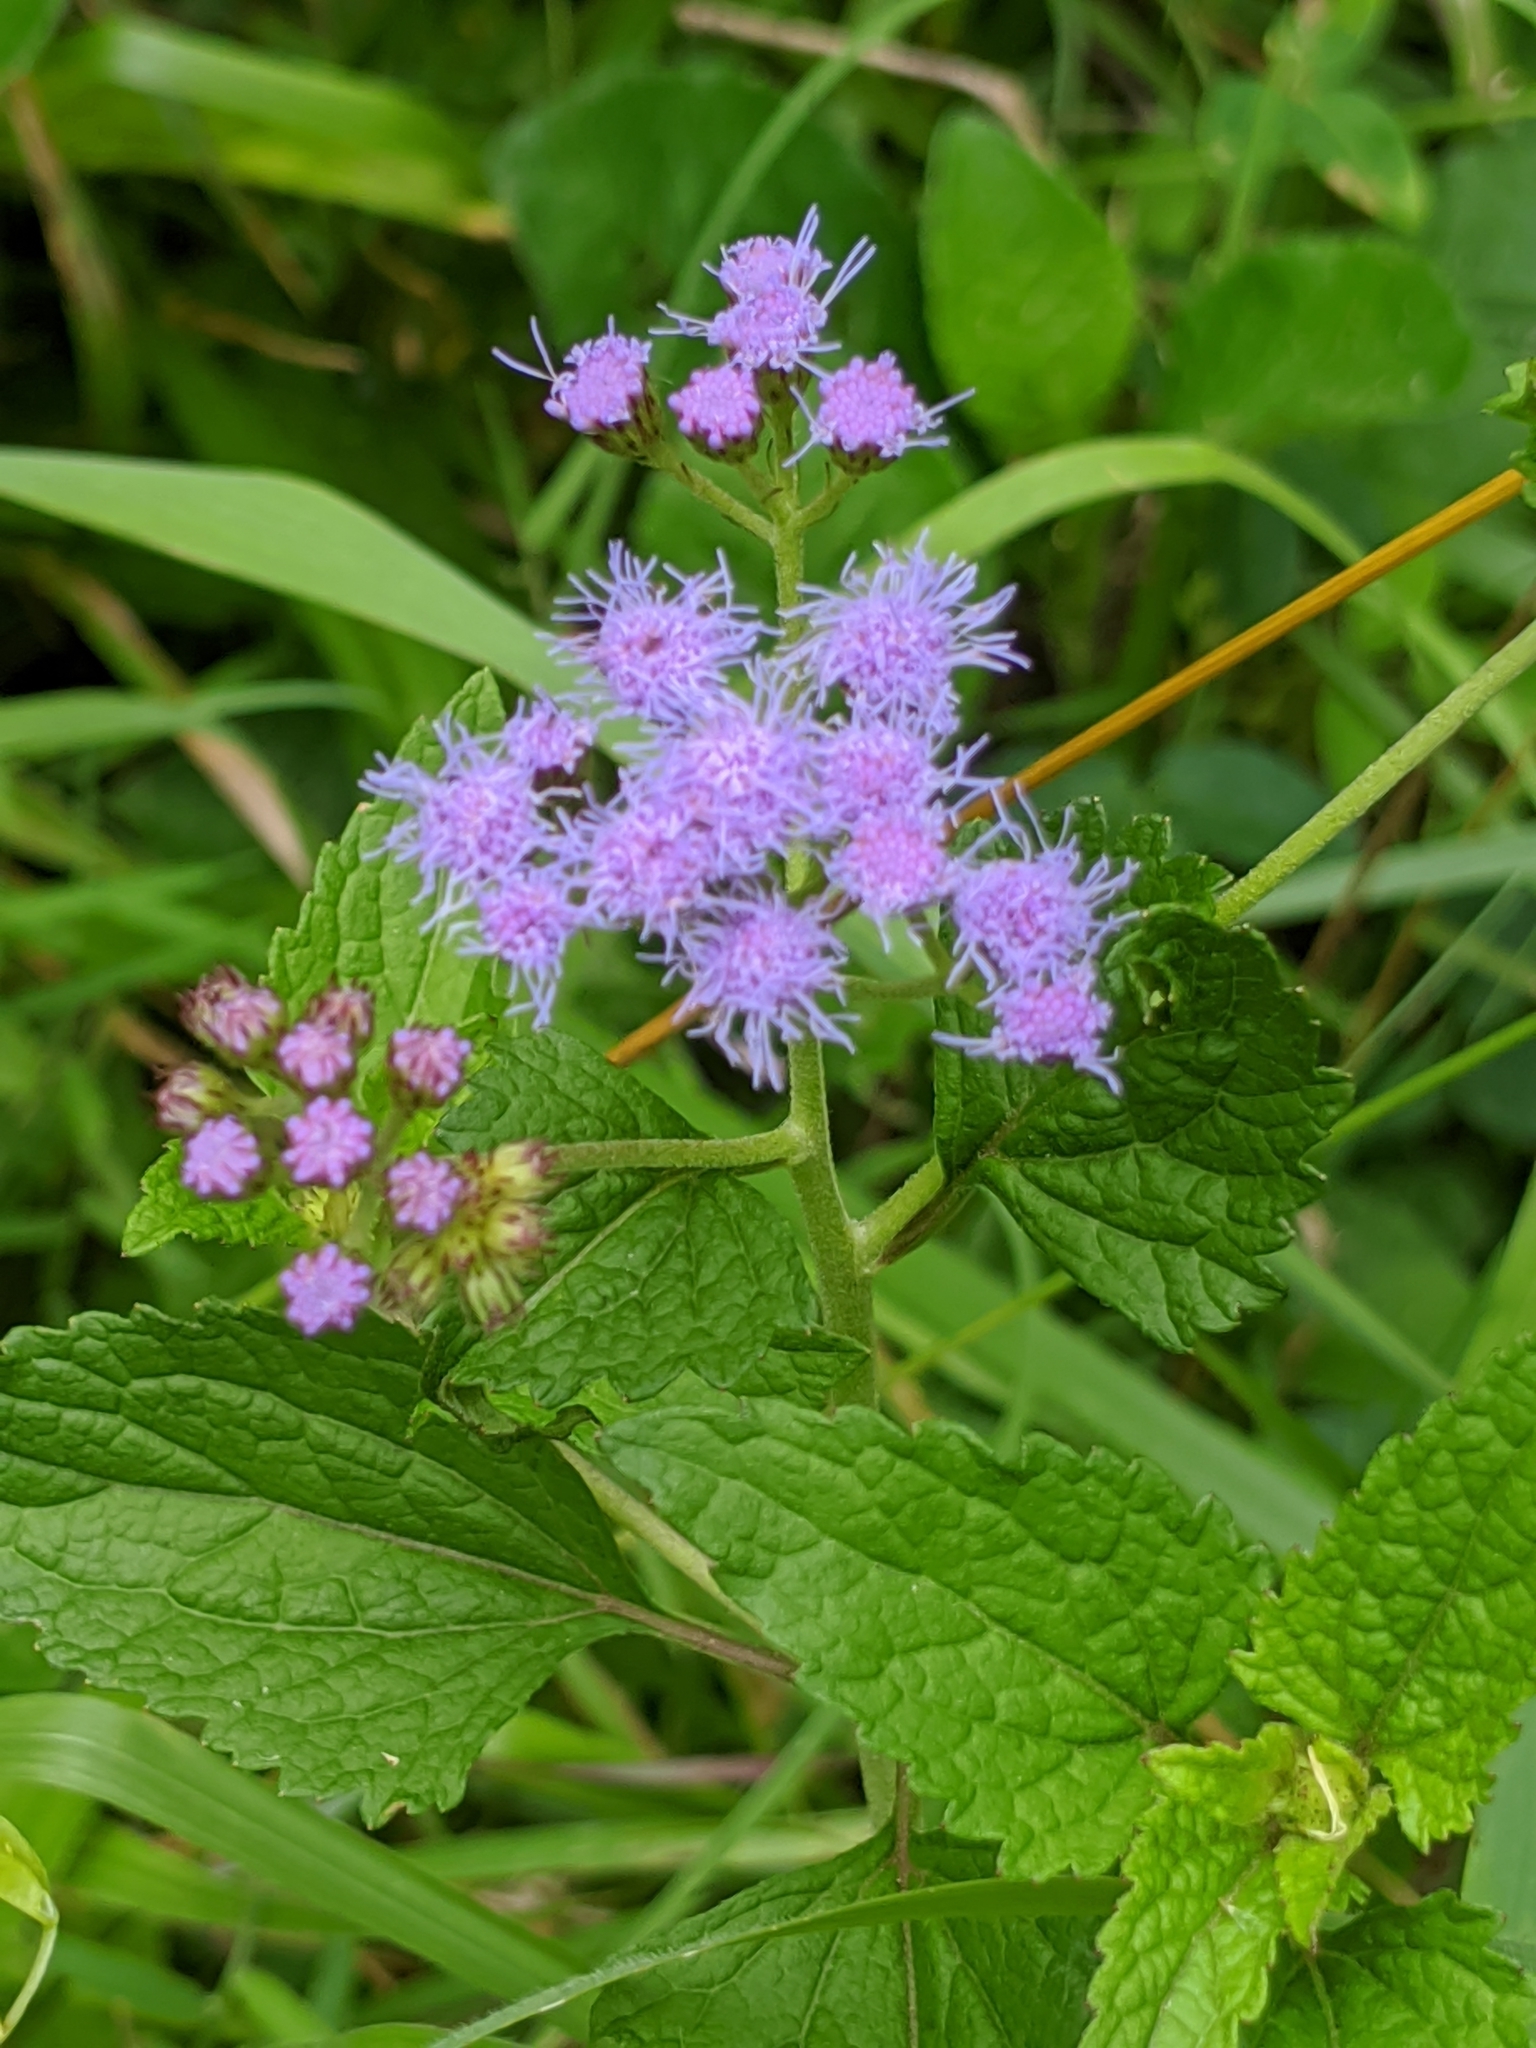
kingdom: Plantae
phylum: Tracheophyta
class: Magnoliopsida
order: Asterales
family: Asteraceae
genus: Conoclinium
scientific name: Conoclinium coelestinum
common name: Blue mistflower
